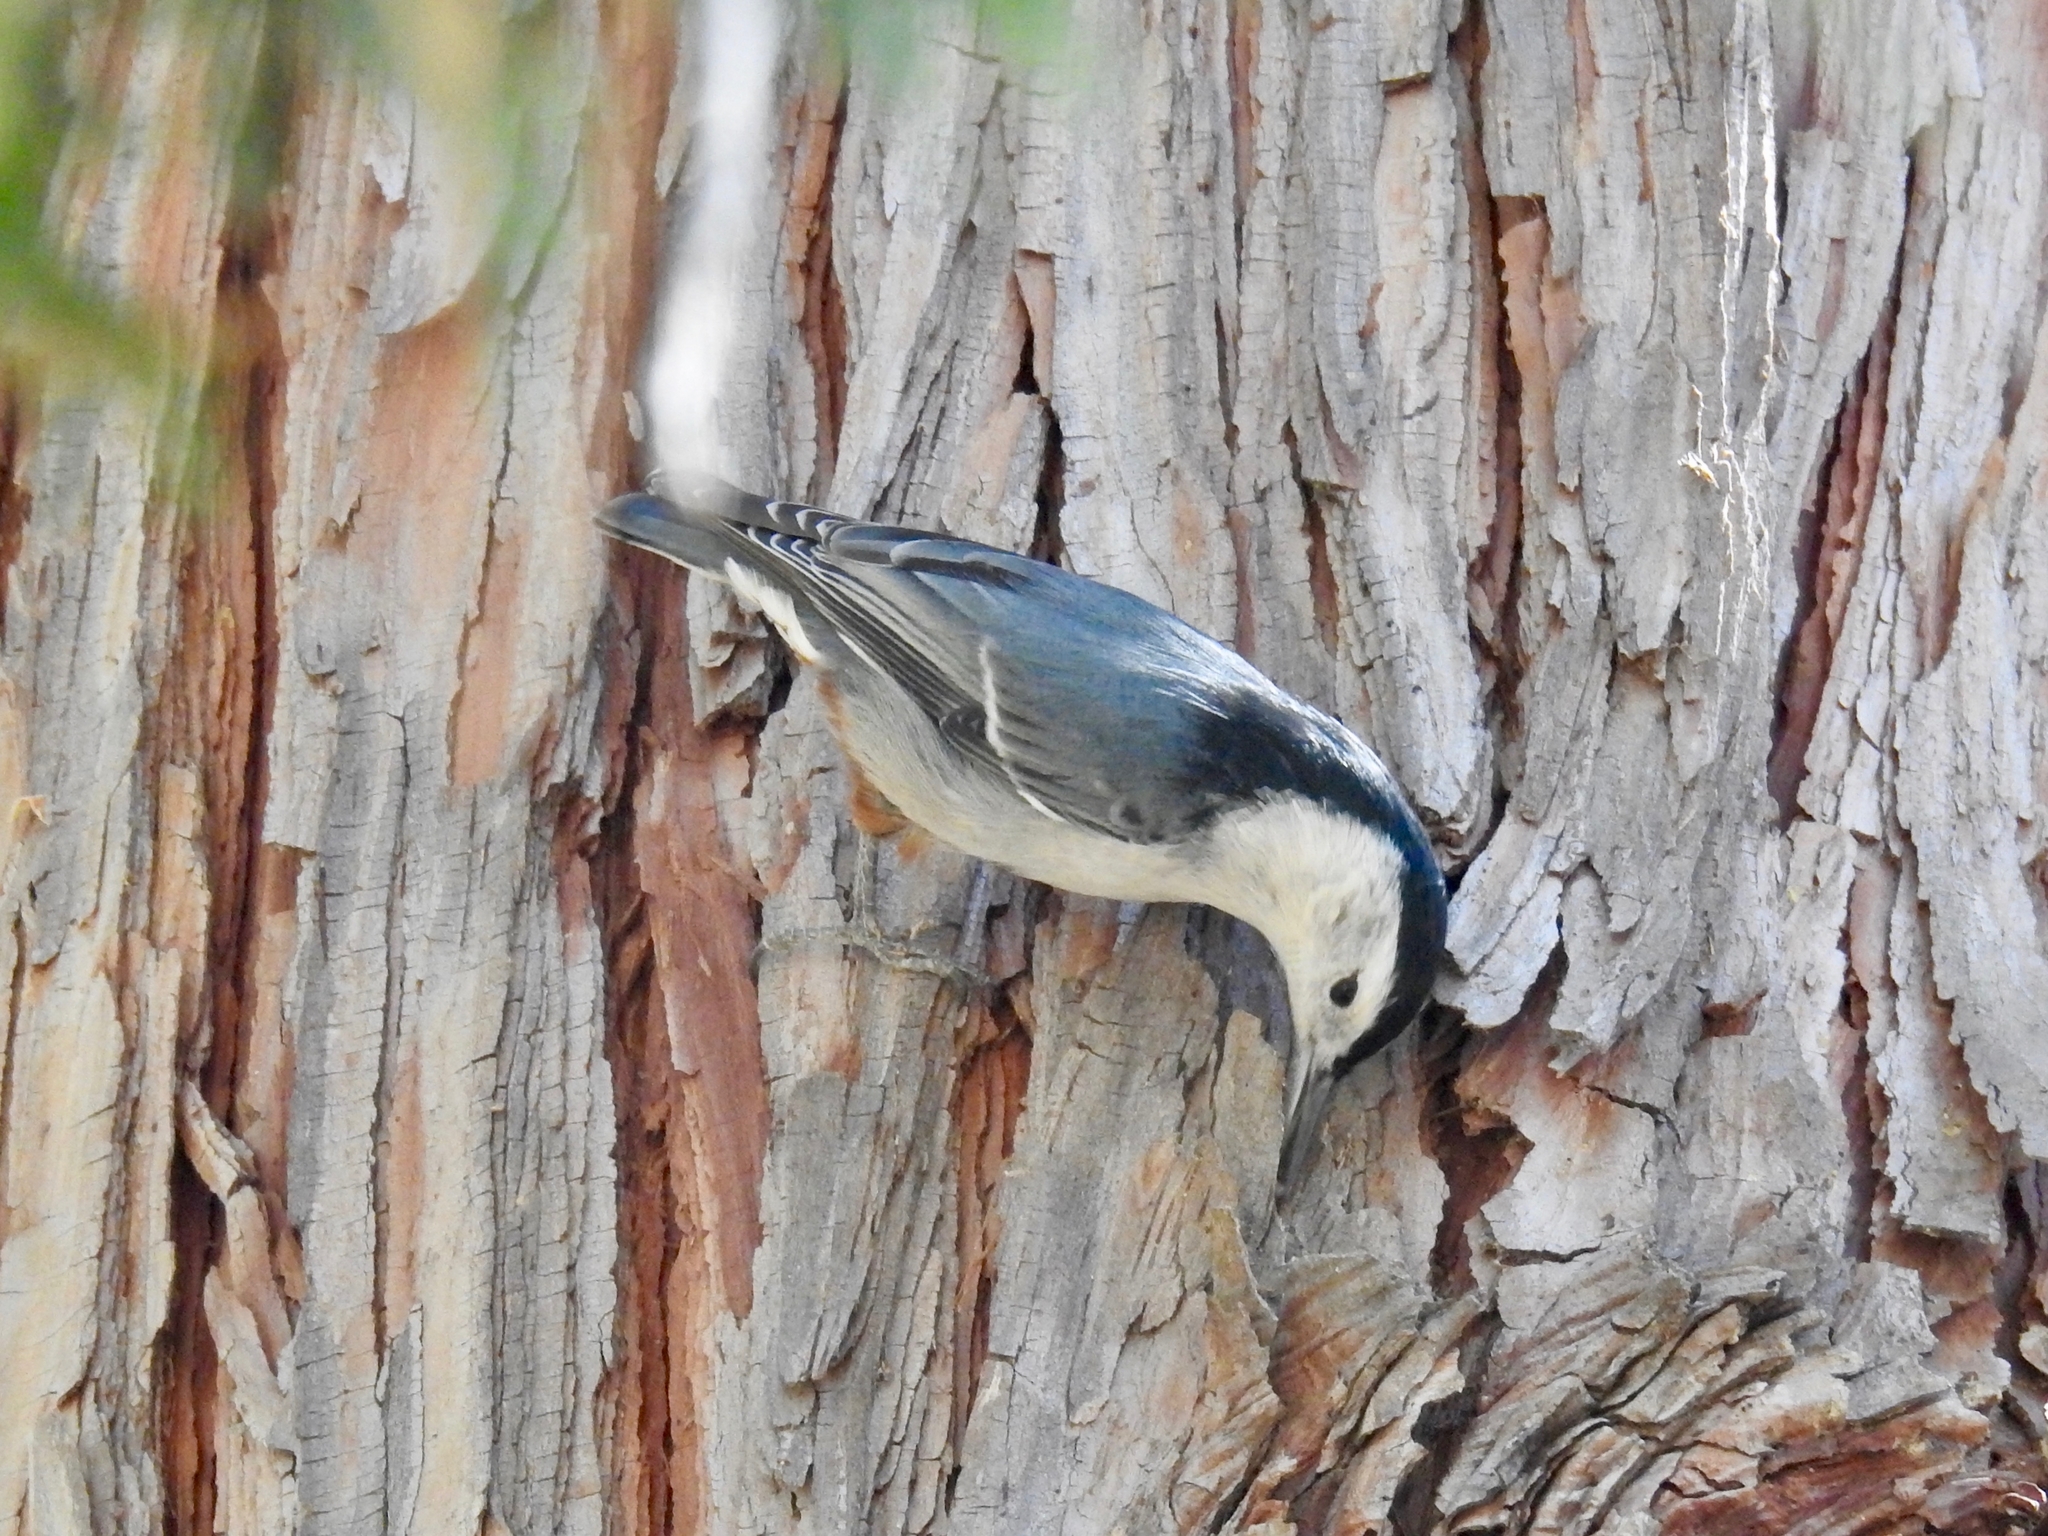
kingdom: Animalia
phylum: Chordata
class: Aves
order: Passeriformes
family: Sittidae
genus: Sitta
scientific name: Sitta carolinensis
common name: White-breasted nuthatch
